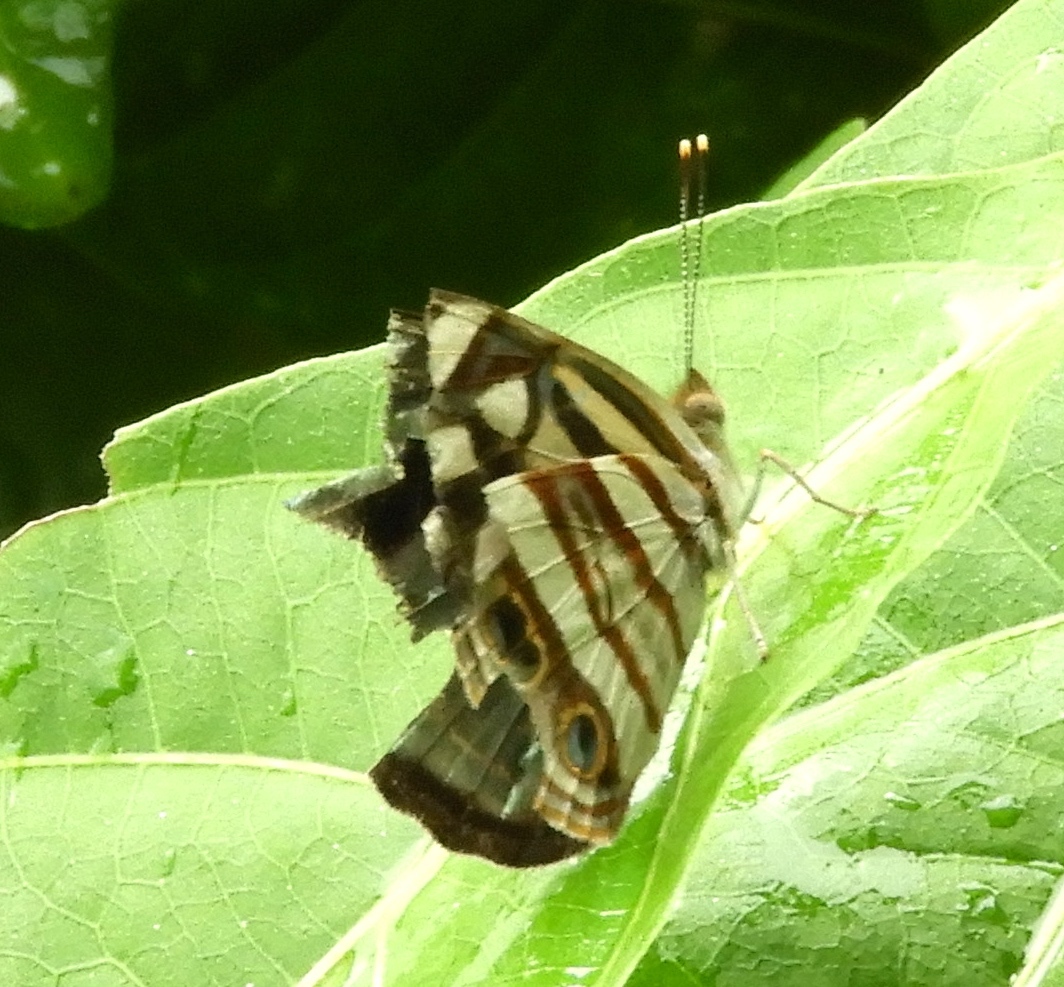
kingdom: Animalia
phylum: Arthropoda
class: Insecta
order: Lepidoptera
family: Nymphalidae
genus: Dynamine
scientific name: Dynamine mylitta
